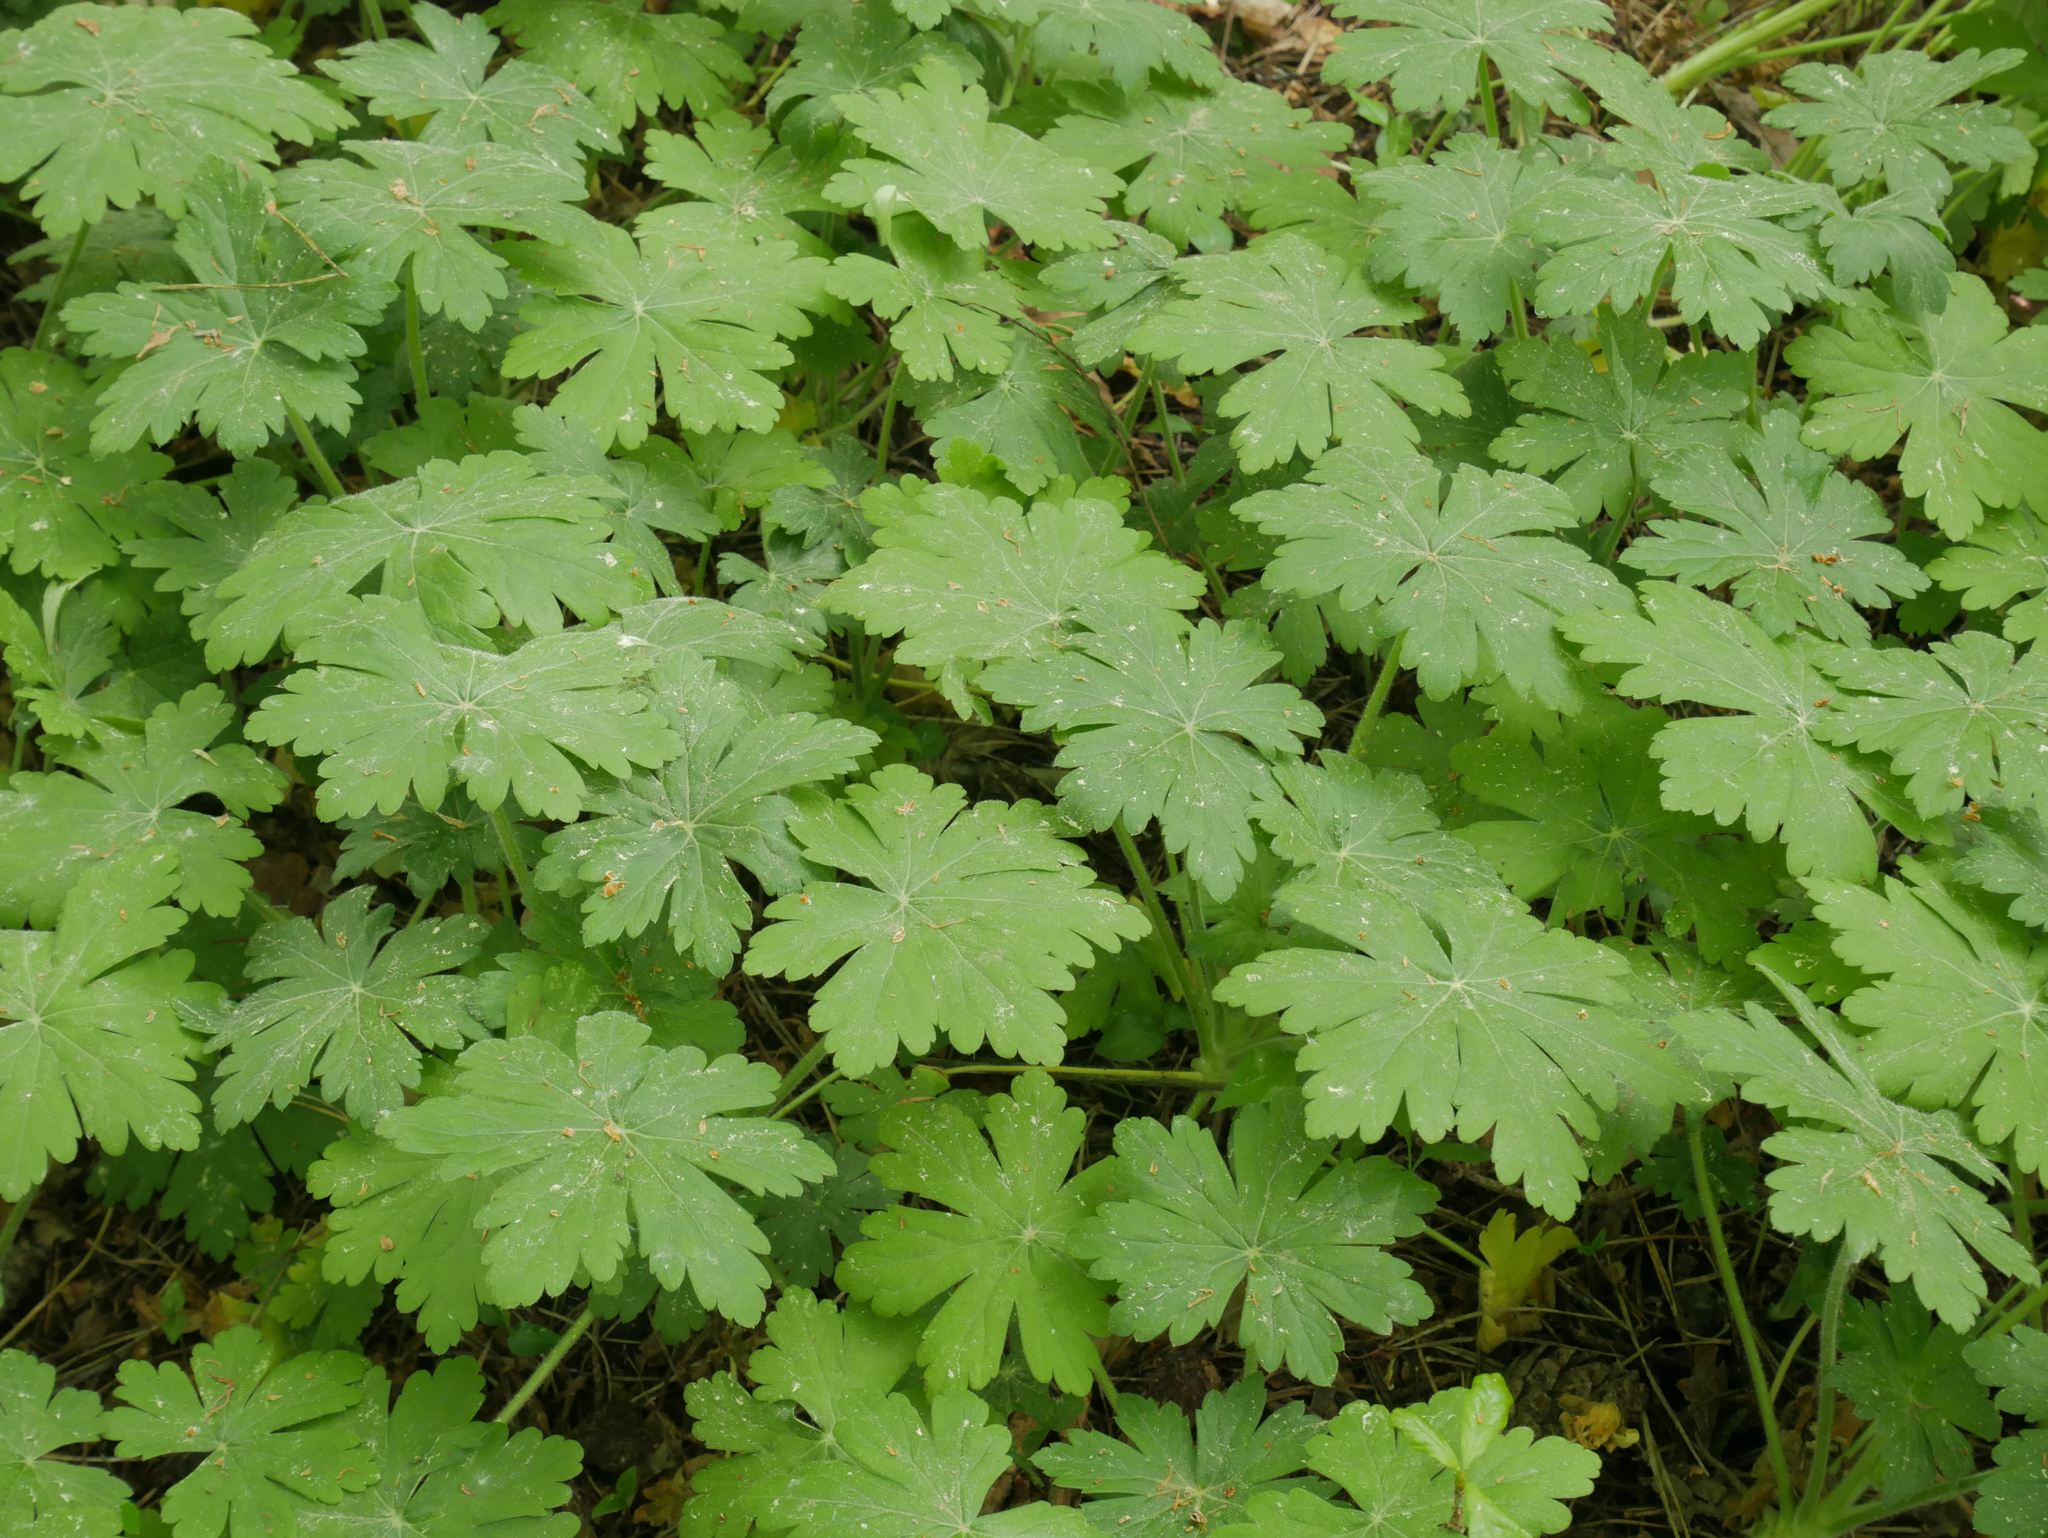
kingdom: Plantae
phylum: Tracheophyta
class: Magnoliopsida
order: Geraniales
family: Geraniaceae
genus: Geranium
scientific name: Geranium macrorrhizum
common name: Rock crane's-bill
